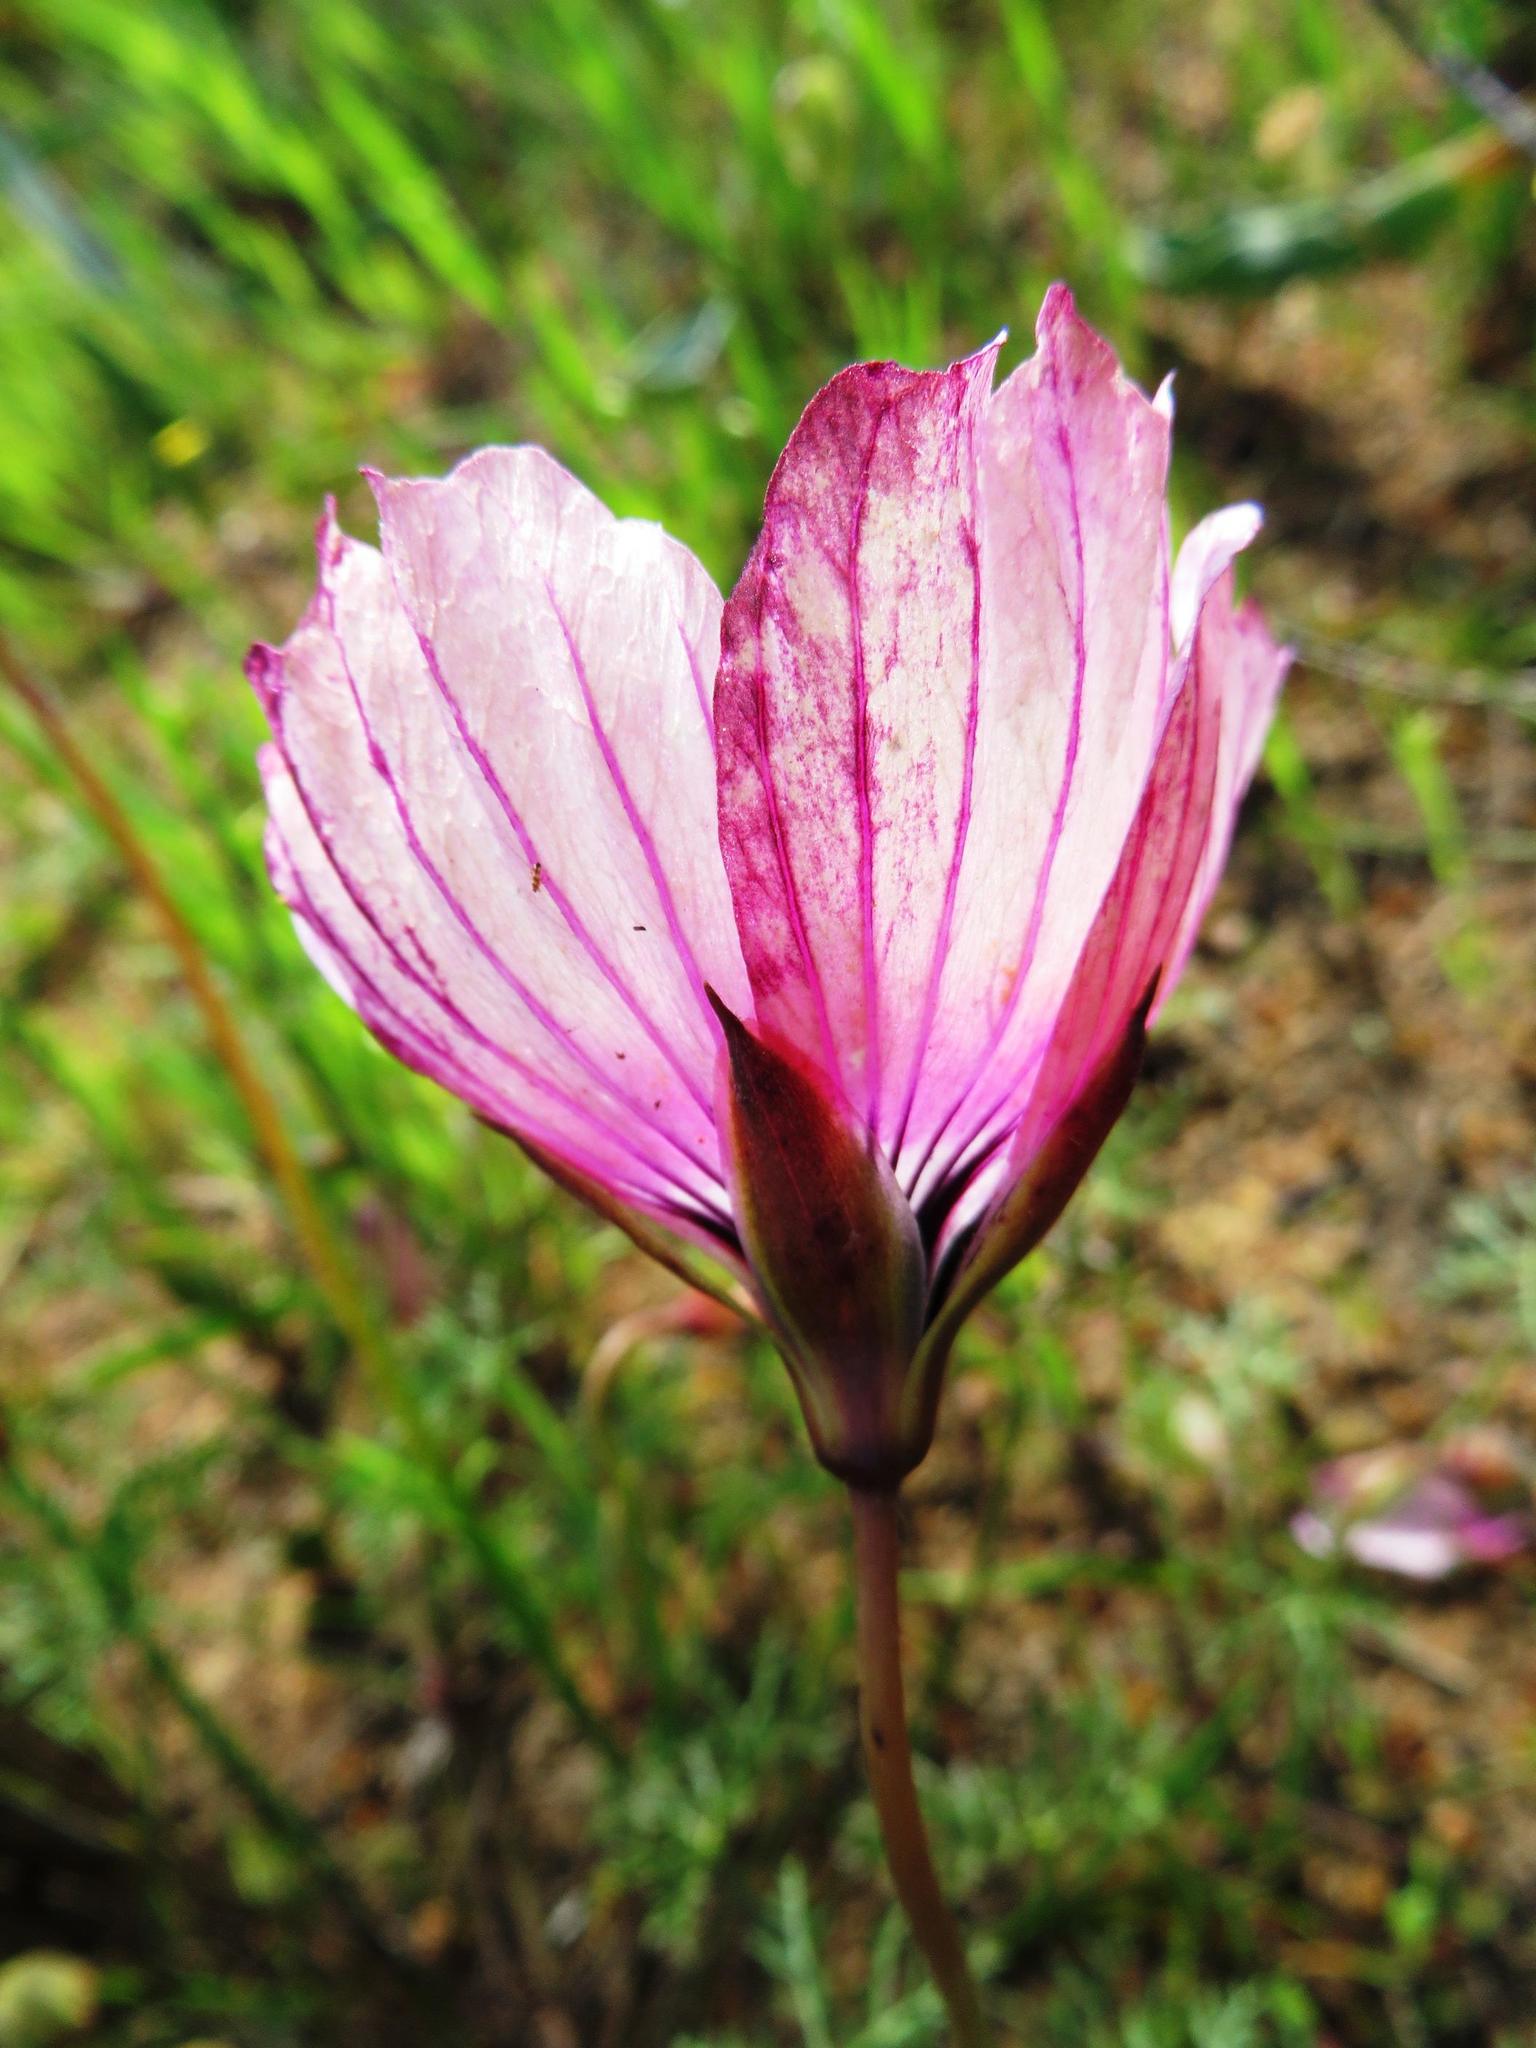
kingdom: Plantae
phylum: Tracheophyta
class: Magnoliopsida
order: Geraniales
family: Geraniaceae
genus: Monsonia
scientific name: Monsonia speciosa
